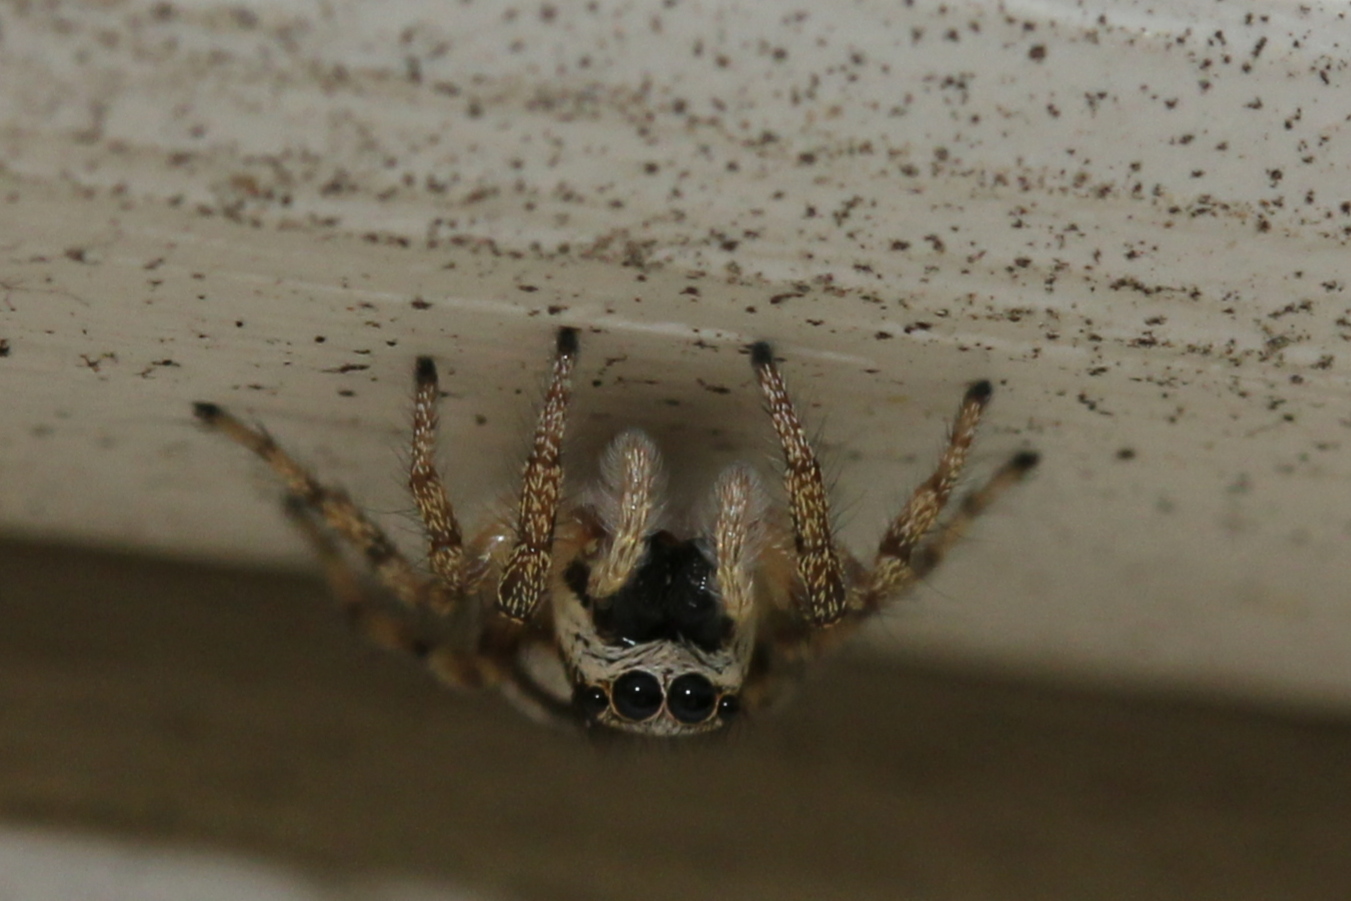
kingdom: Animalia
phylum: Arthropoda
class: Arachnida
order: Araneae
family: Salticidae
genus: Salticus
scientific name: Salticus scenicus
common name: Zebra jumper
